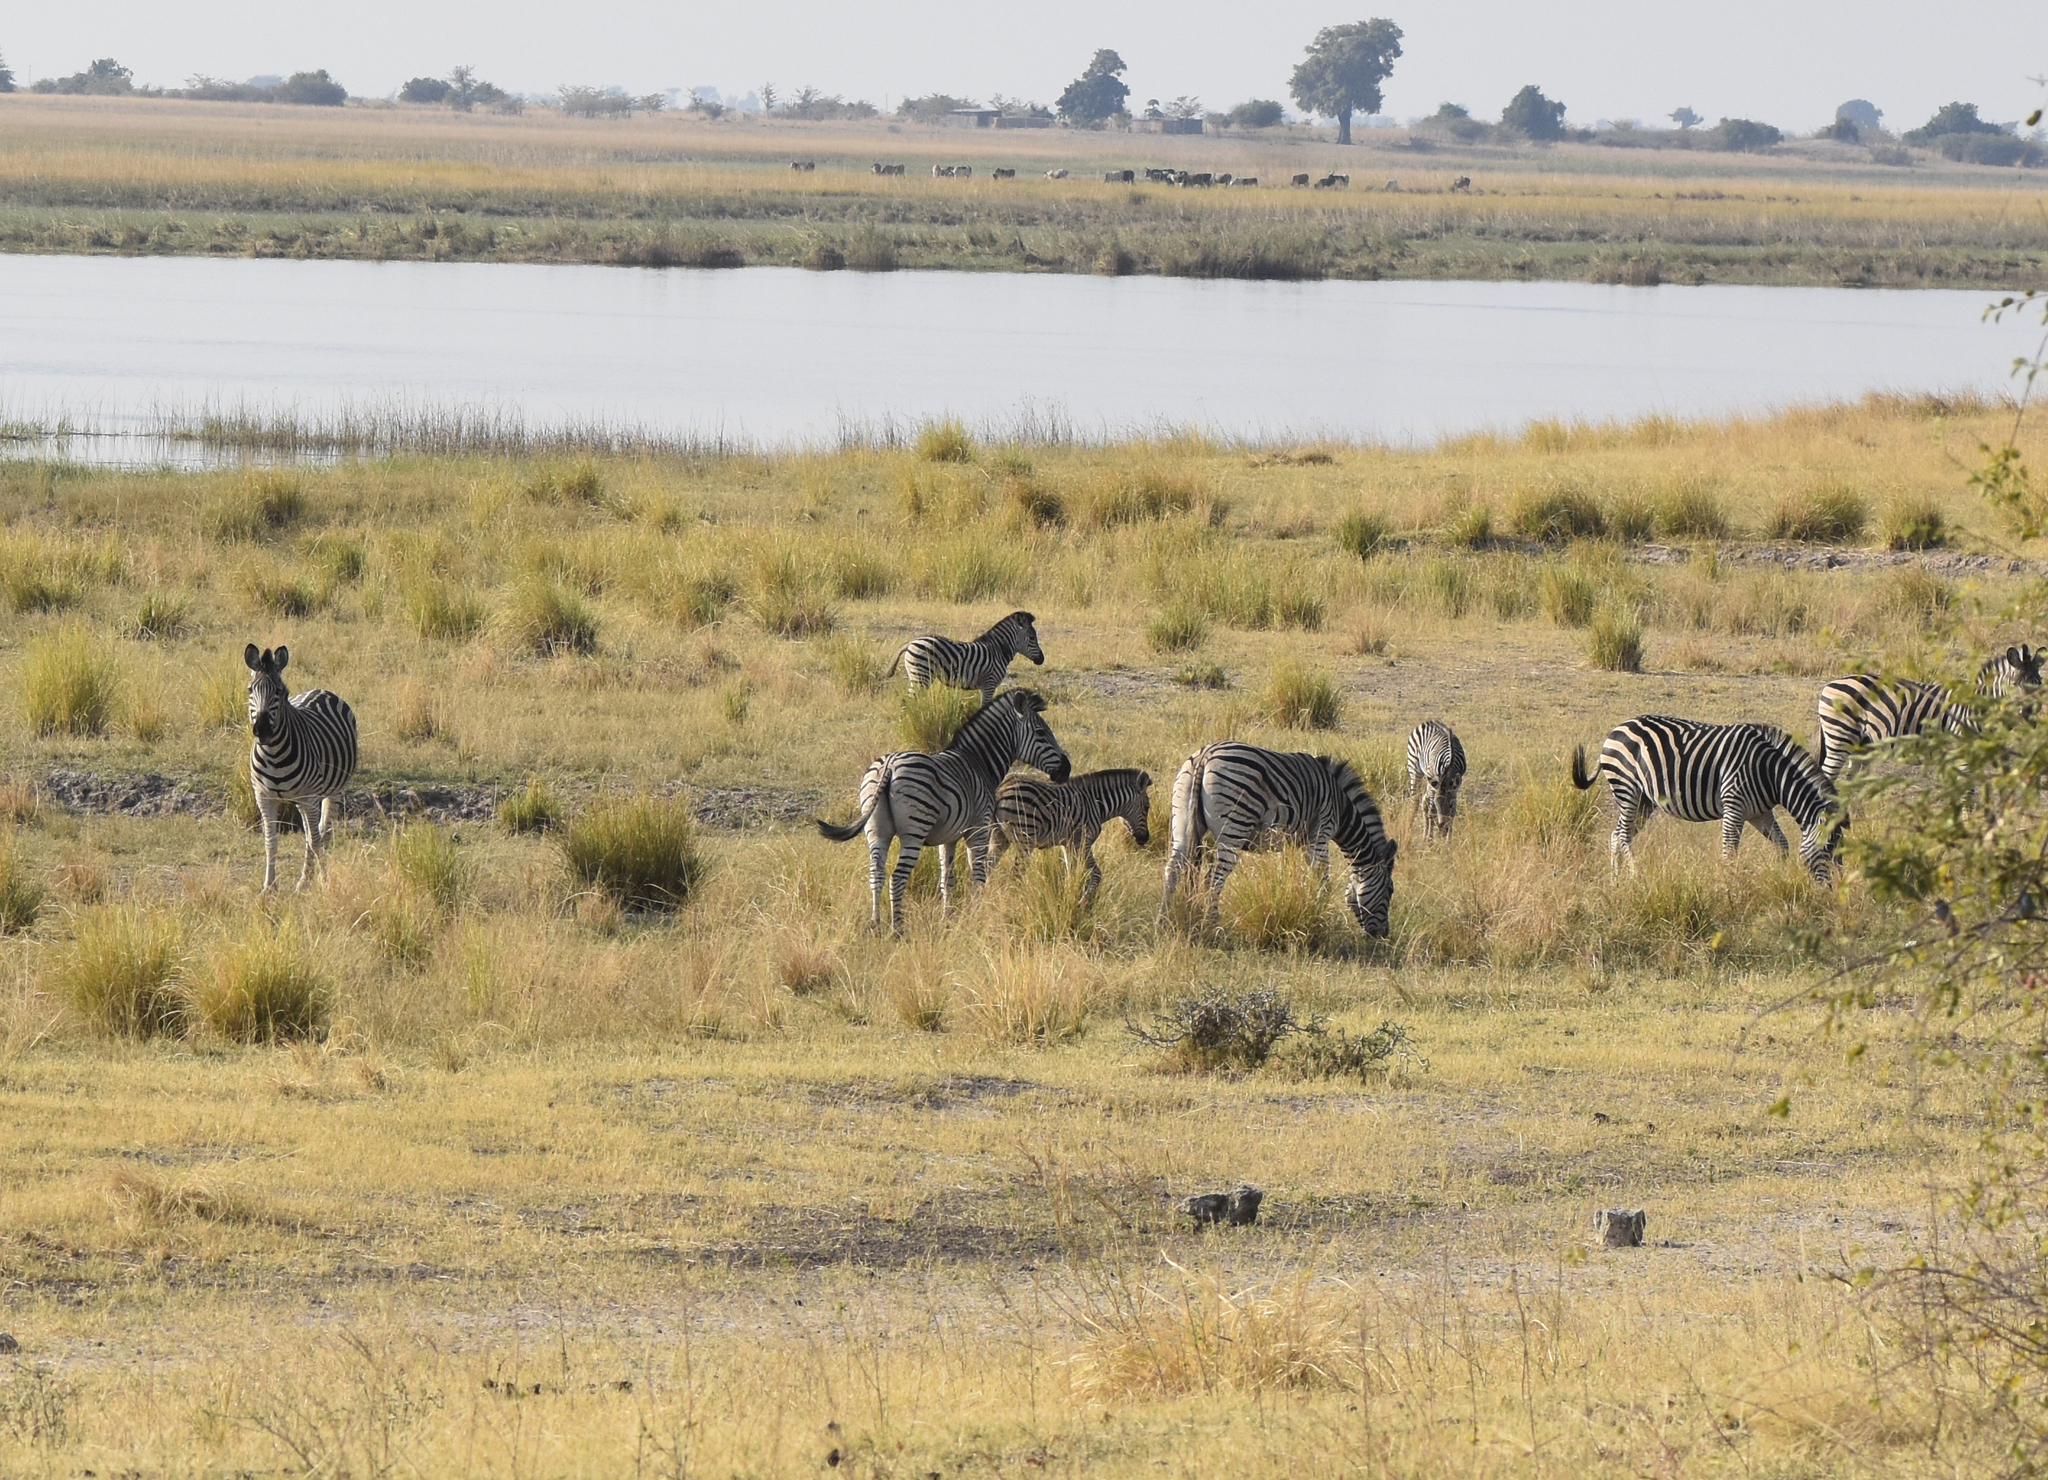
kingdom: Animalia
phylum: Chordata
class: Mammalia
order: Perissodactyla
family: Equidae
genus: Equus
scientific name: Equus quagga
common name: Plains zebra
